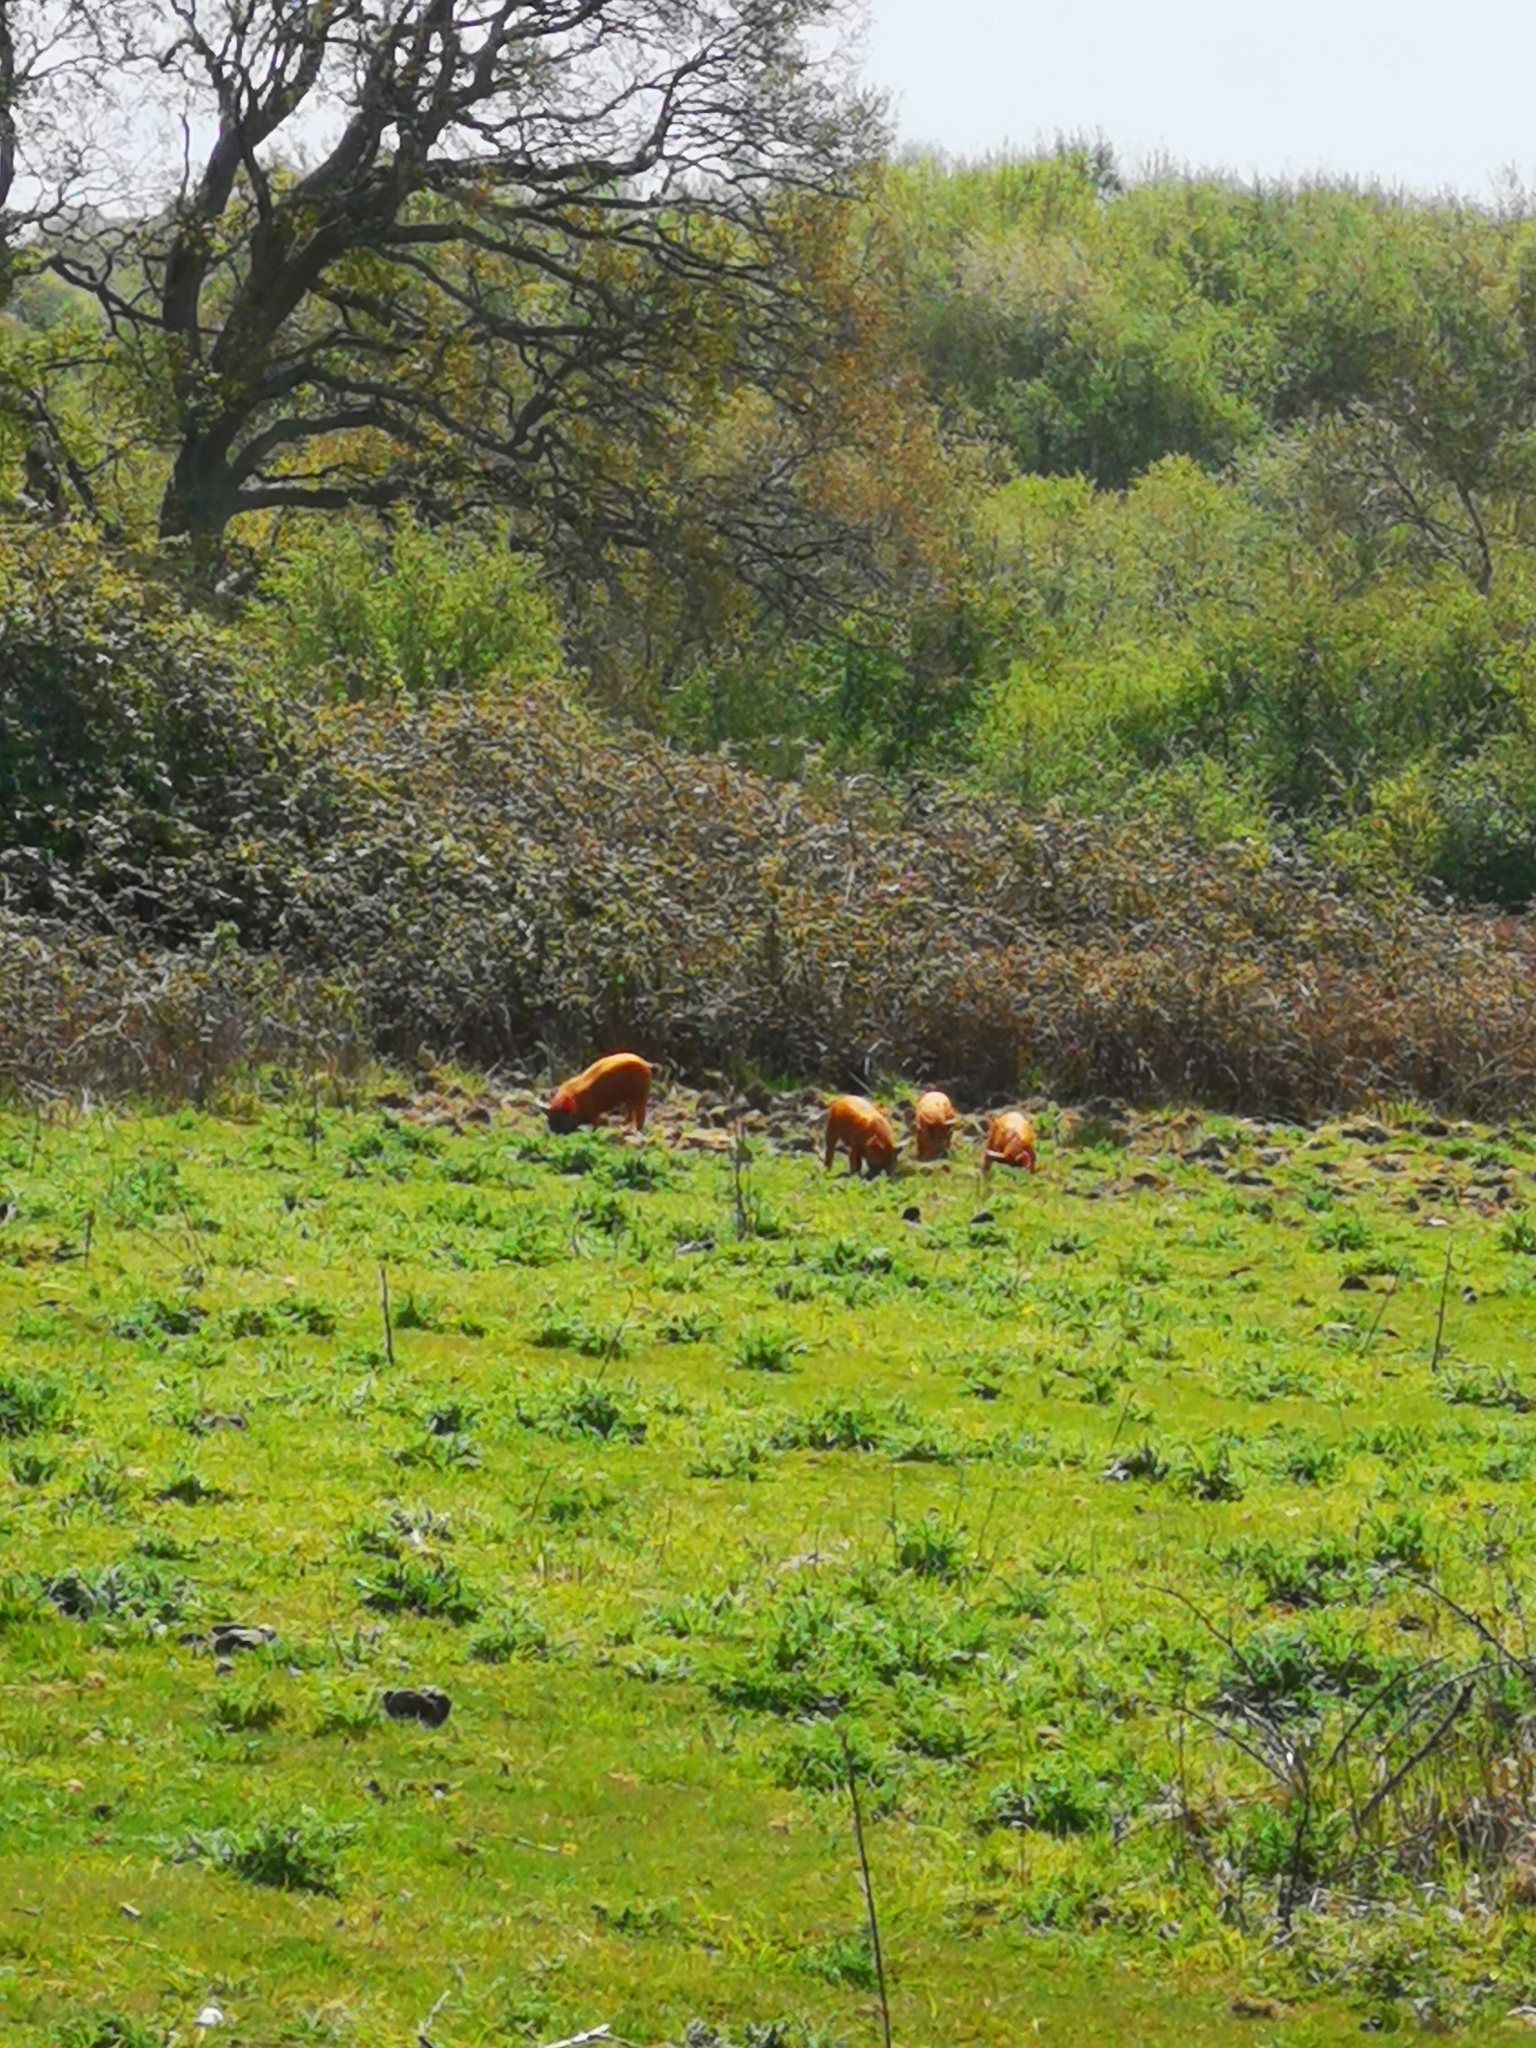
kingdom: Animalia
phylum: Chordata
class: Mammalia
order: Artiodactyla
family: Suidae
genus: Sus
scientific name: Sus scrofa
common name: Wild boar
